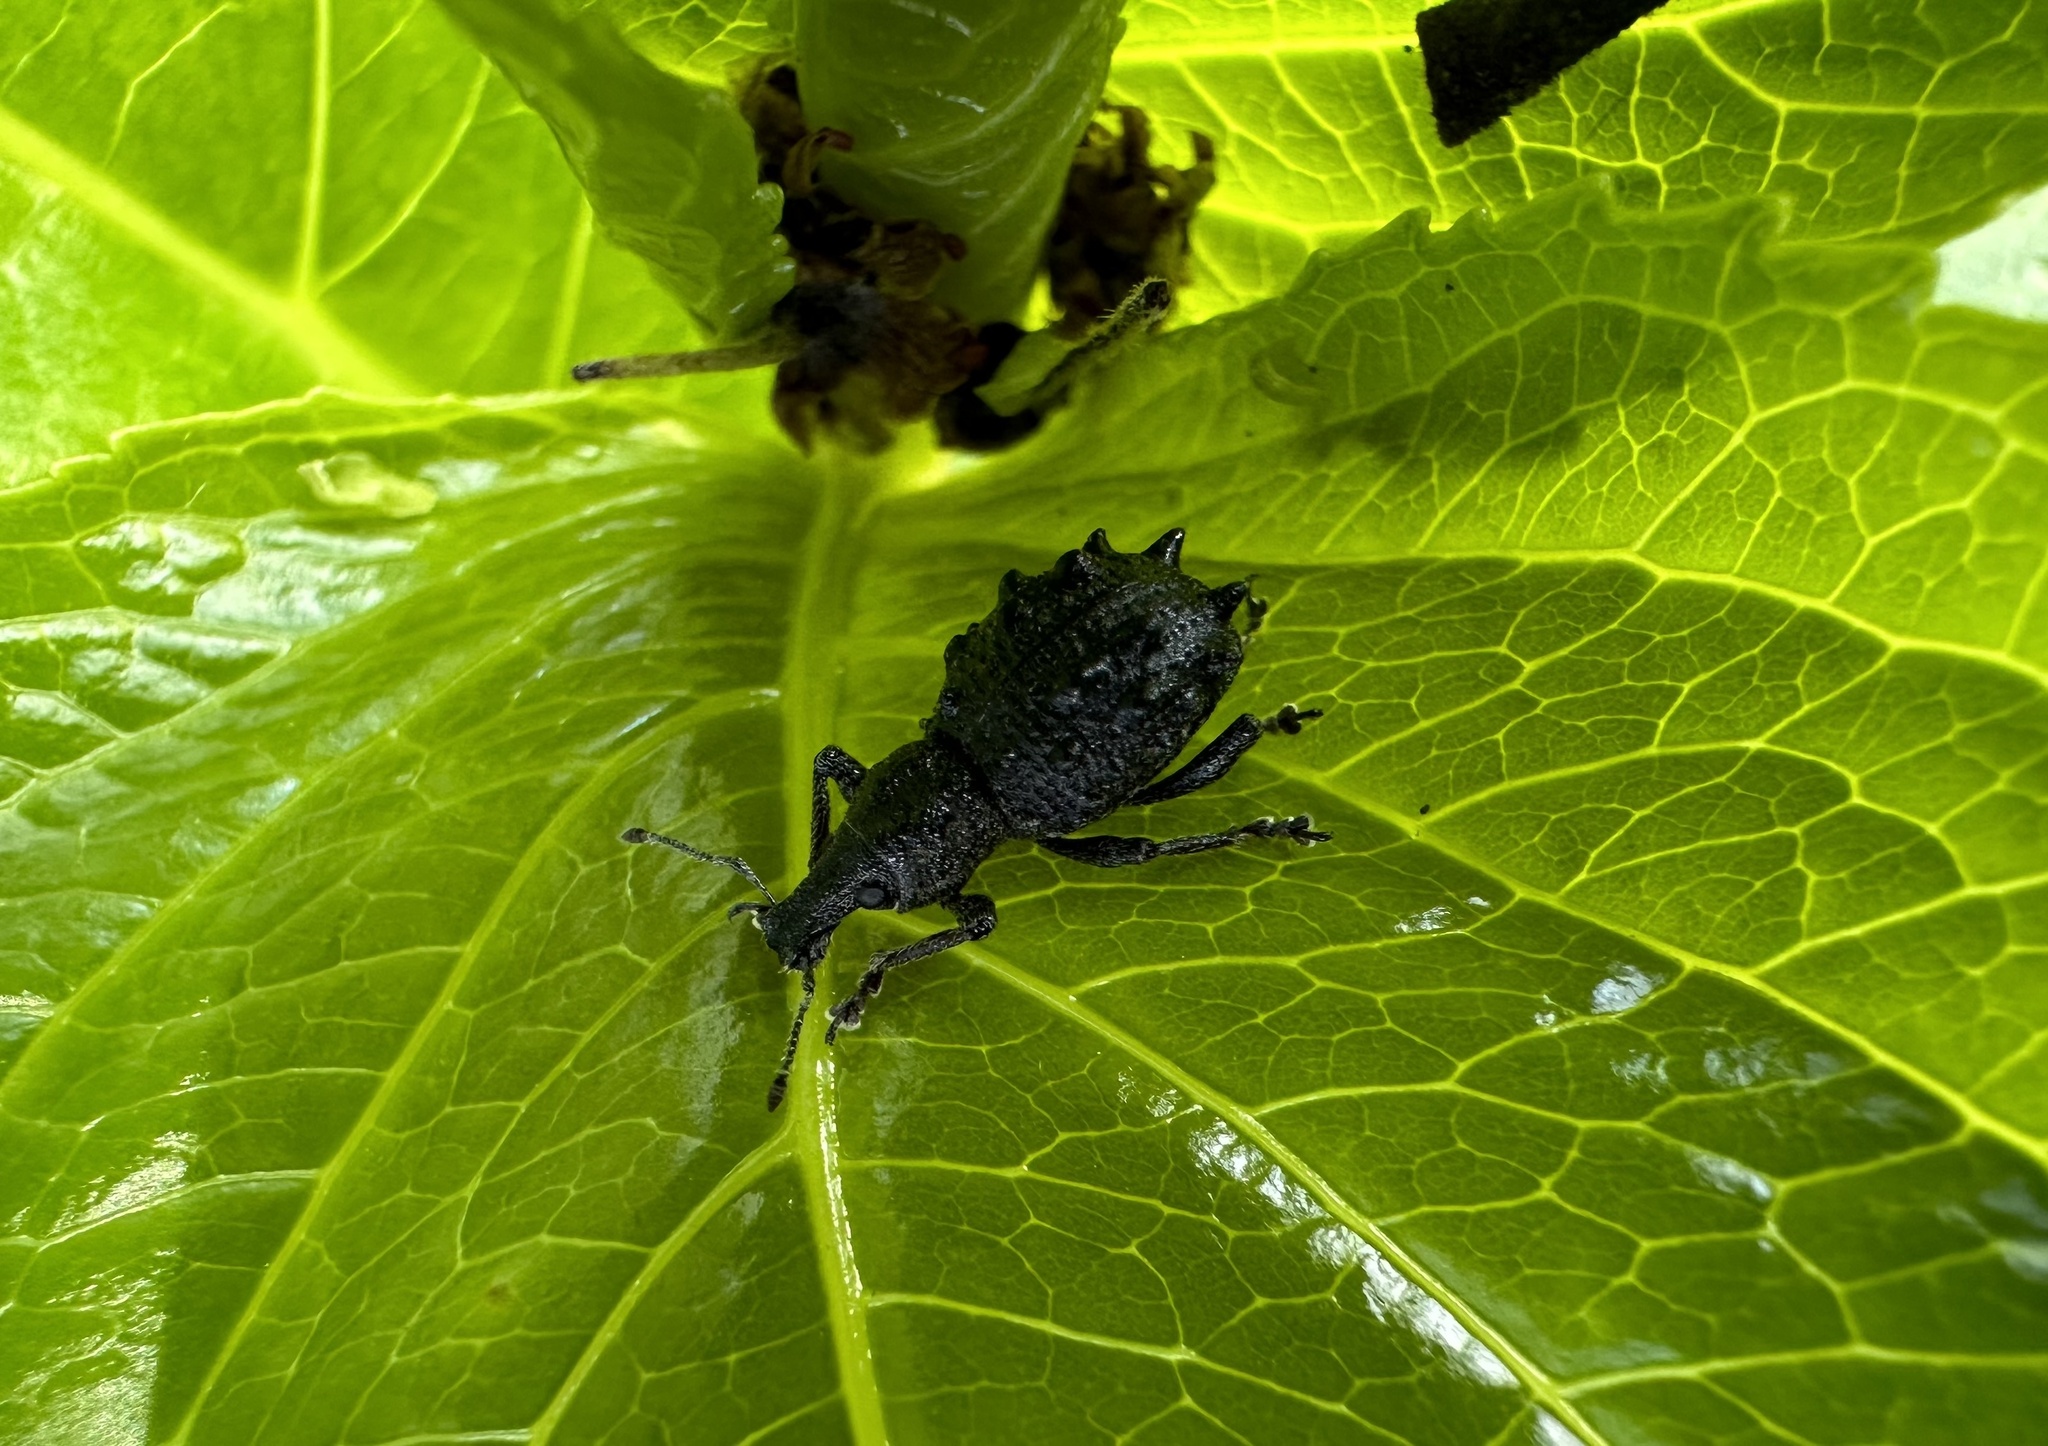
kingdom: Animalia
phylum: Arthropoda
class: Insecta
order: Coleoptera
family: Curculionidae
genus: Megalometis
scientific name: Megalometis spiniferus
